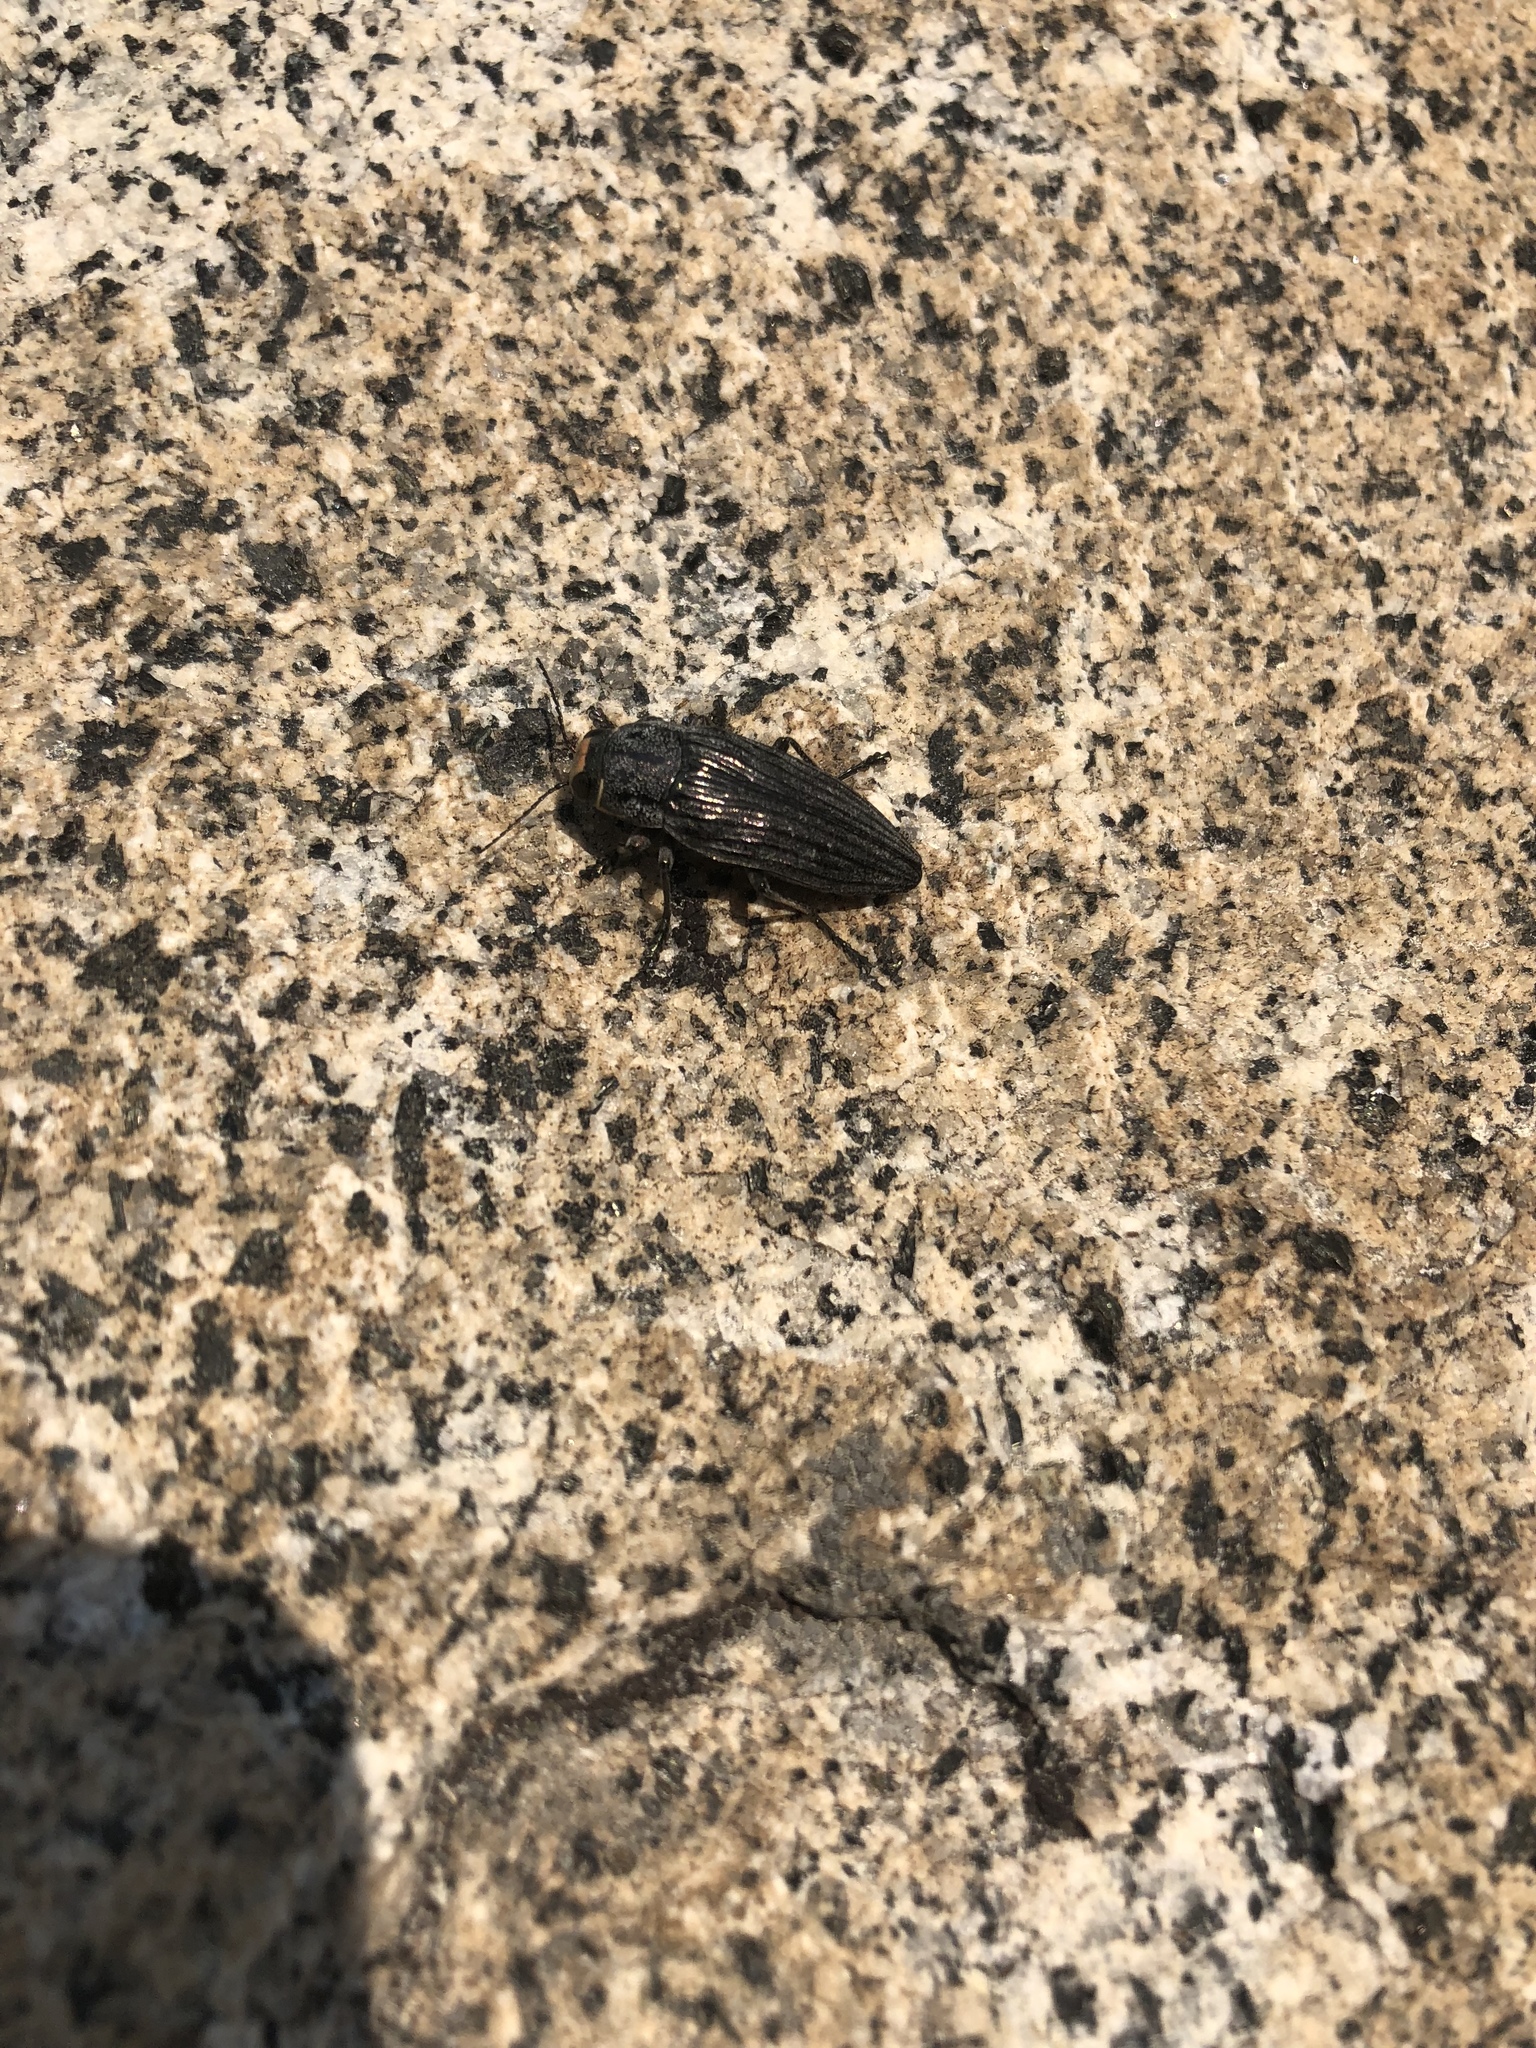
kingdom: Animalia
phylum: Arthropoda
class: Insecta
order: Coleoptera
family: Buprestidae
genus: Buprestis
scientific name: Buprestis lyrata
